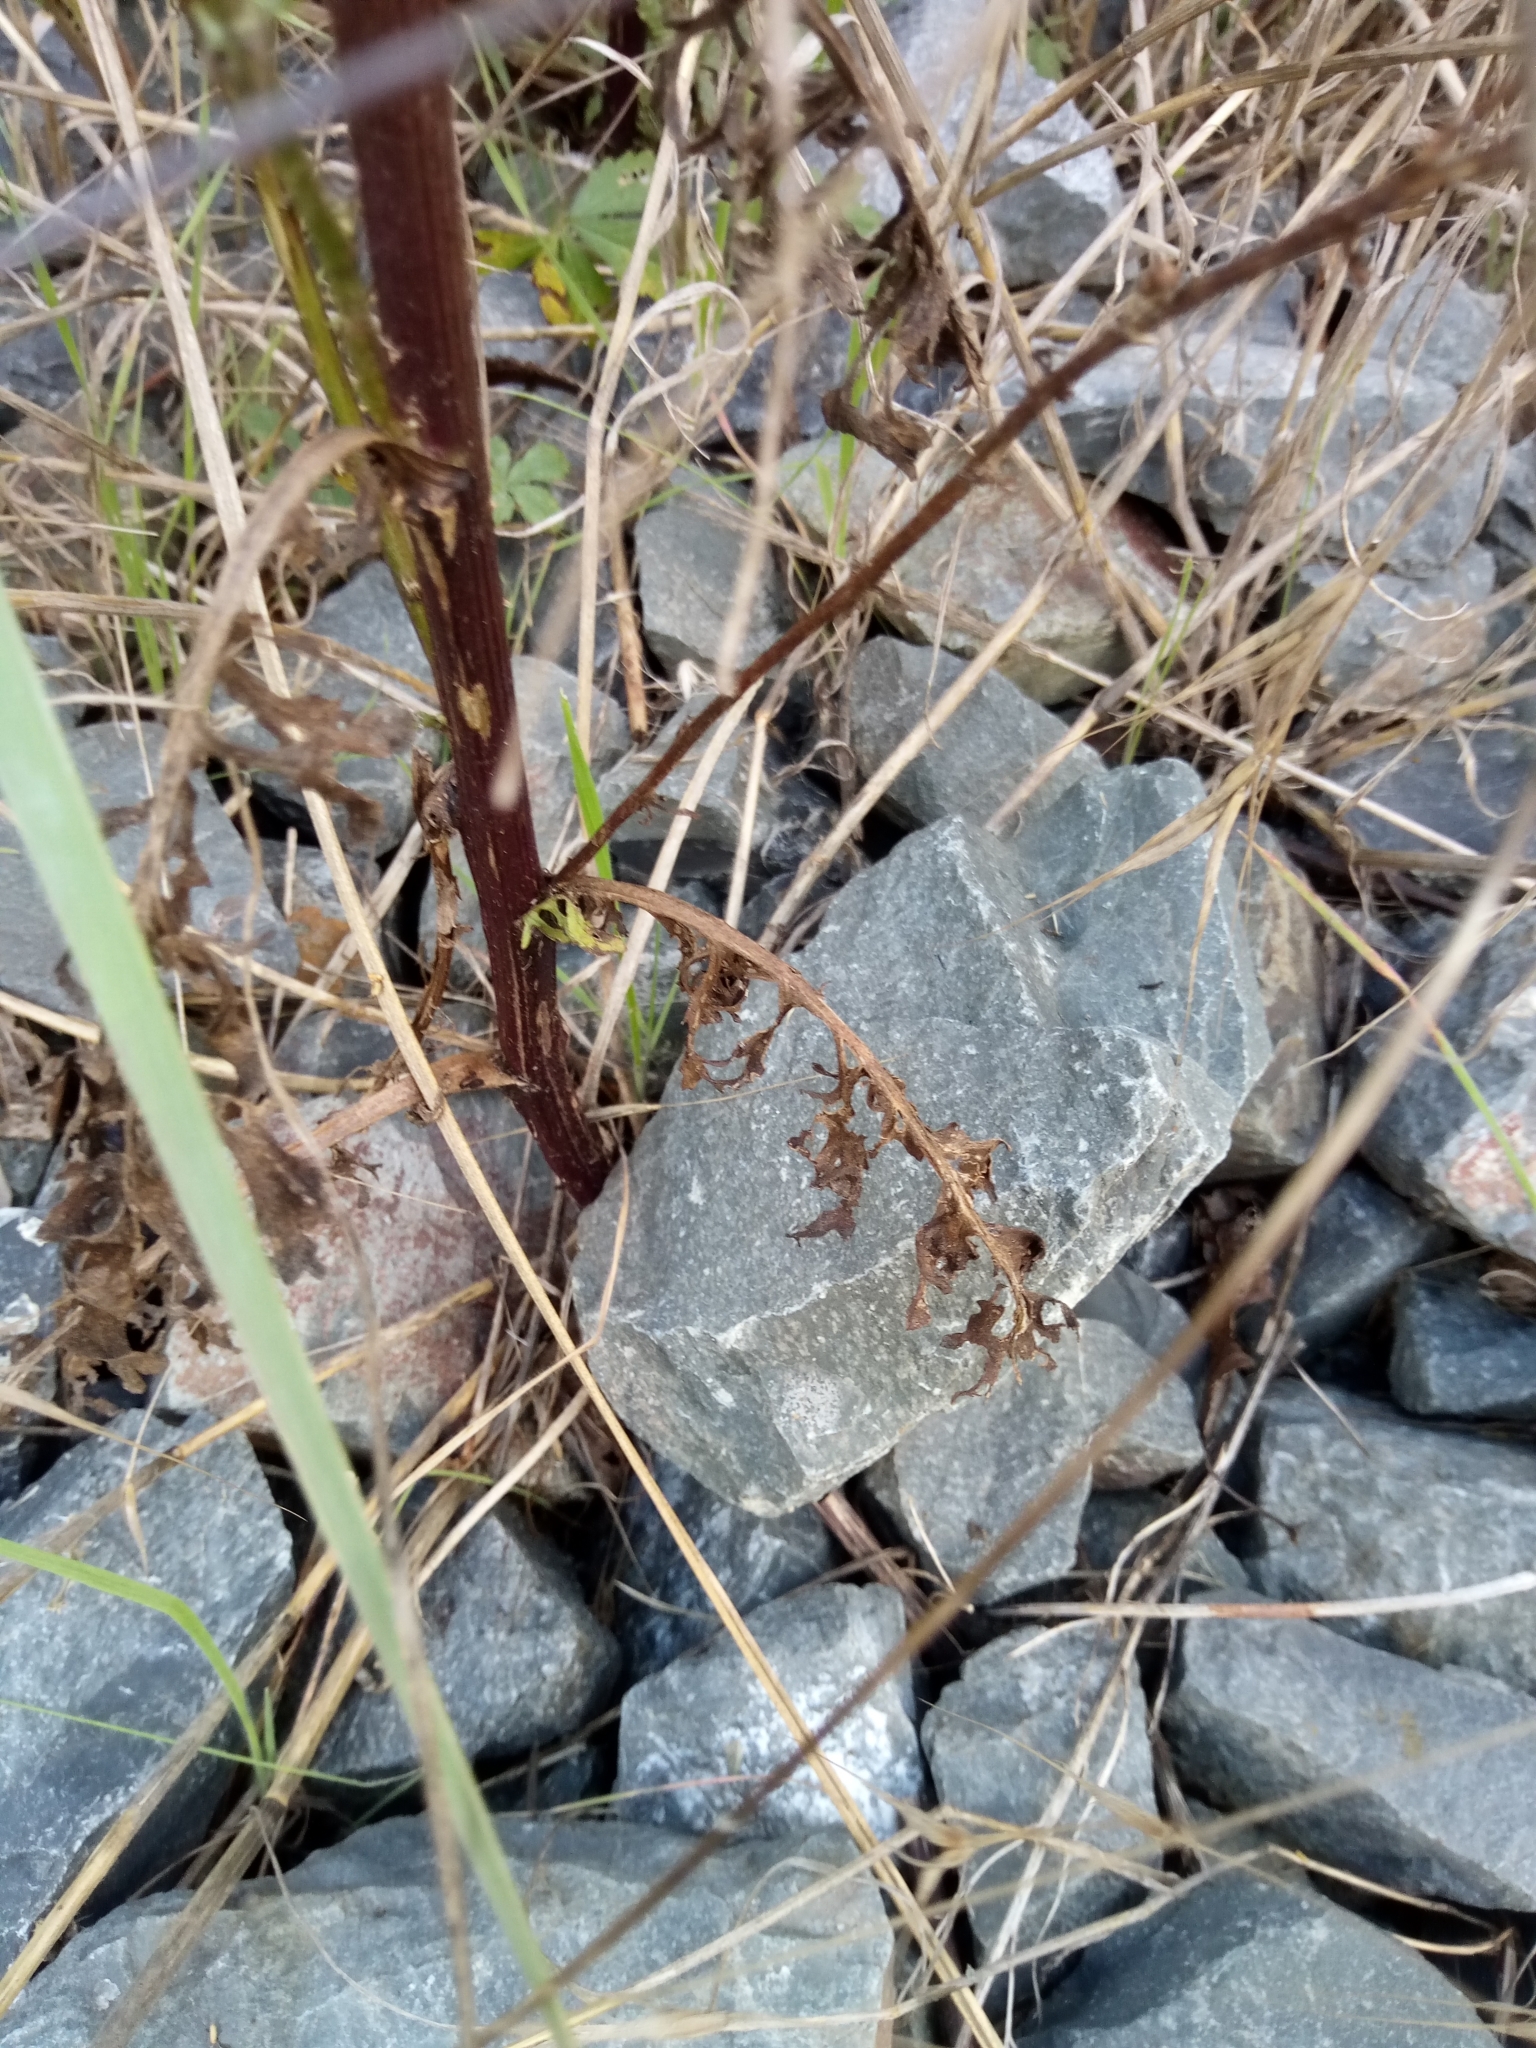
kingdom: Plantae
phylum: Tracheophyta
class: Magnoliopsida
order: Asterales
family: Asteraceae
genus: Jacobaea
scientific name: Jacobaea vulgaris
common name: Stinking willie
